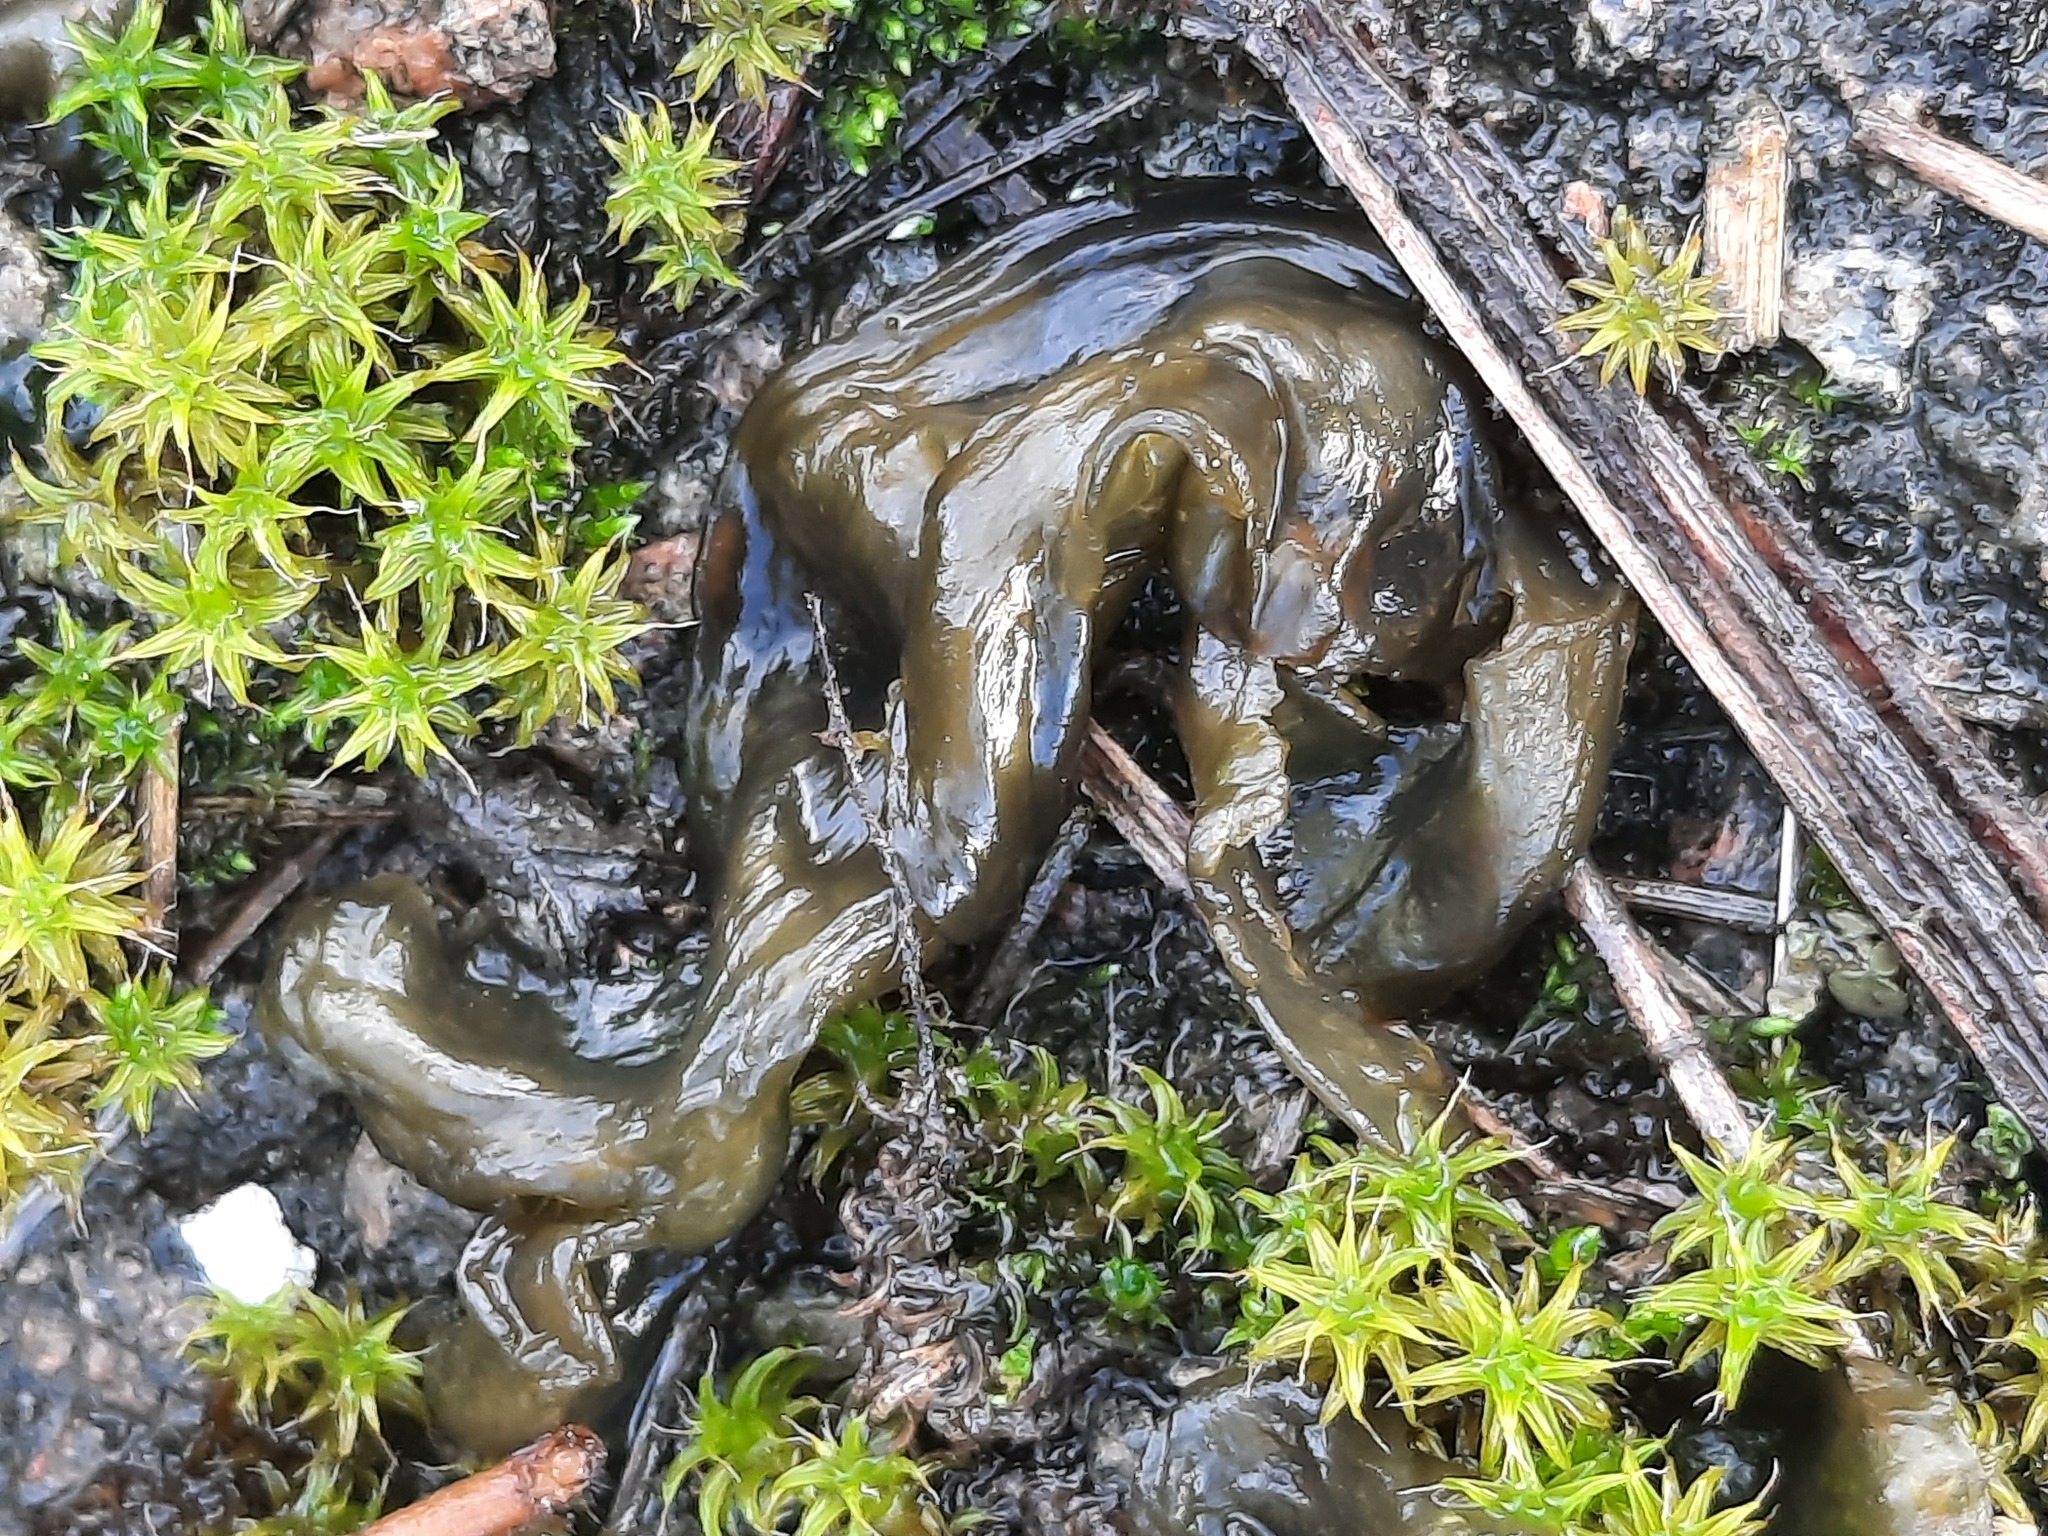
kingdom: Bacteria
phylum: Cyanobacteria
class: Cyanobacteriia
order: Cyanobacteriales
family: Nostocaceae
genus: Nostoc
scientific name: Nostoc commune
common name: Star jelly
